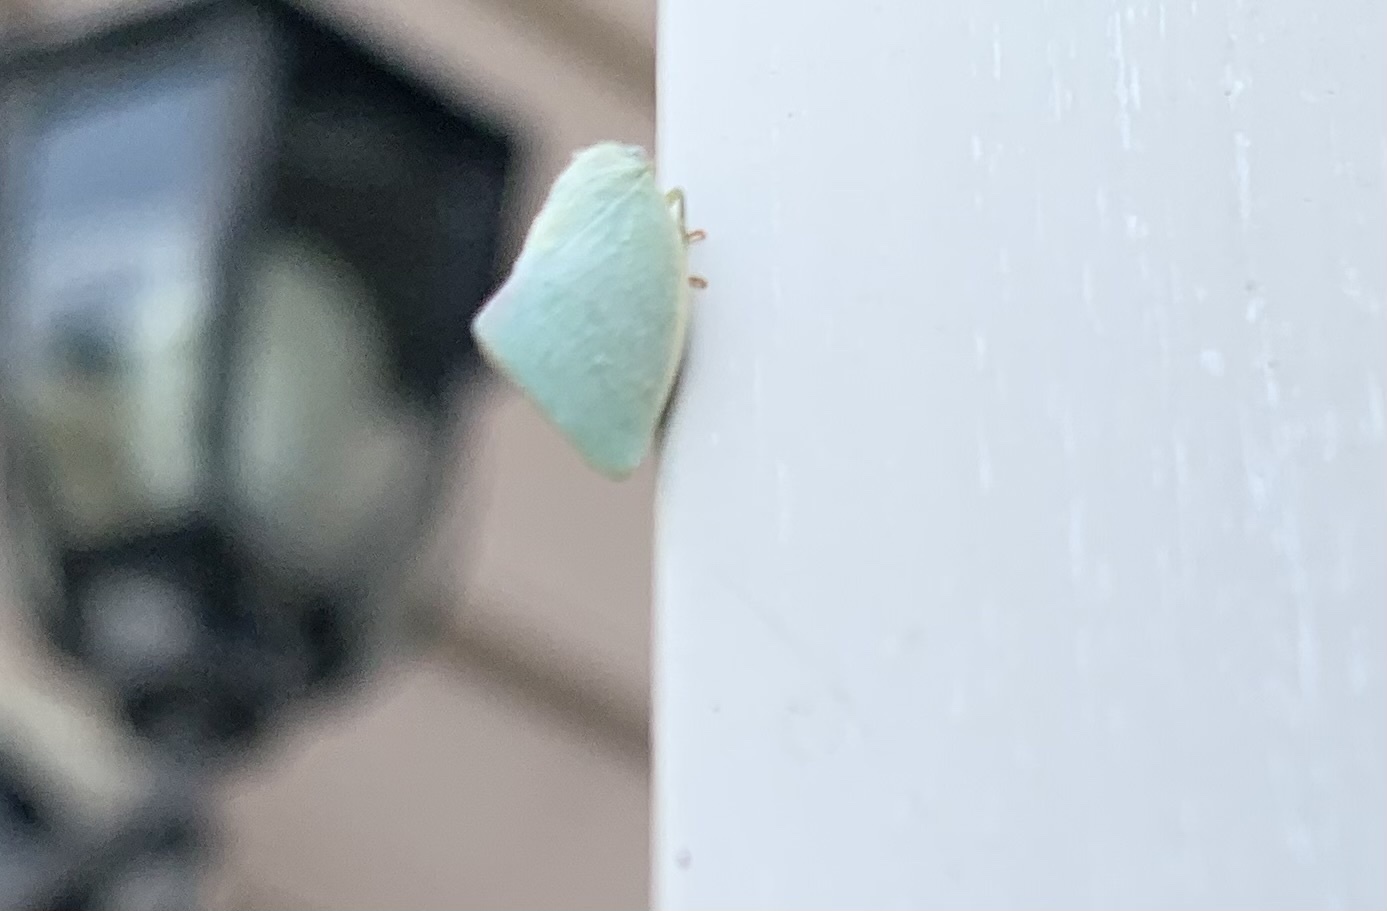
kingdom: Animalia
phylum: Arthropoda
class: Insecta
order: Hemiptera
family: Flatidae
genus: Flatormenis
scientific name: Flatormenis proxima
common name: Northern flatid planthopper
